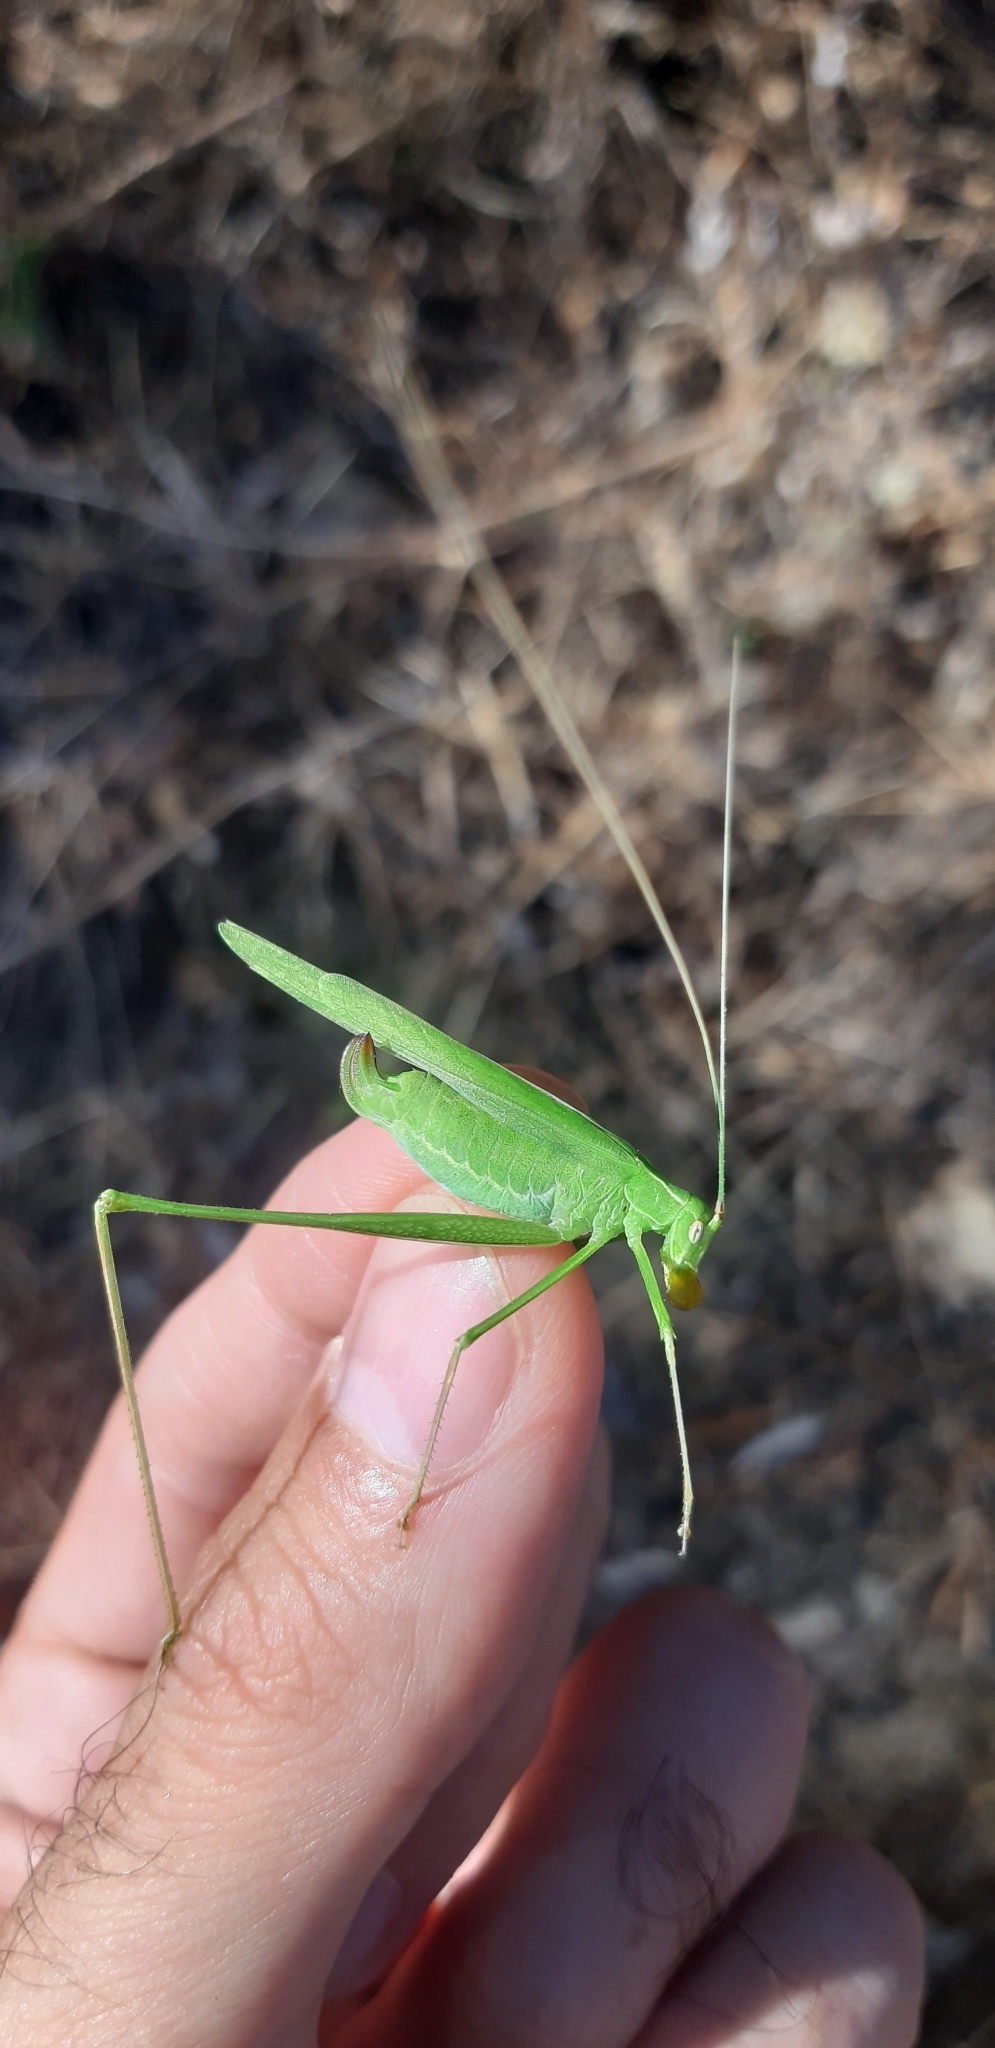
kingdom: Animalia
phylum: Arthropoda
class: Insecta
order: Orthoptera
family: Tettigoniidae
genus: Tylopsis
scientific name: Tylopsis lilifolia
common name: Lily bush-cricket
